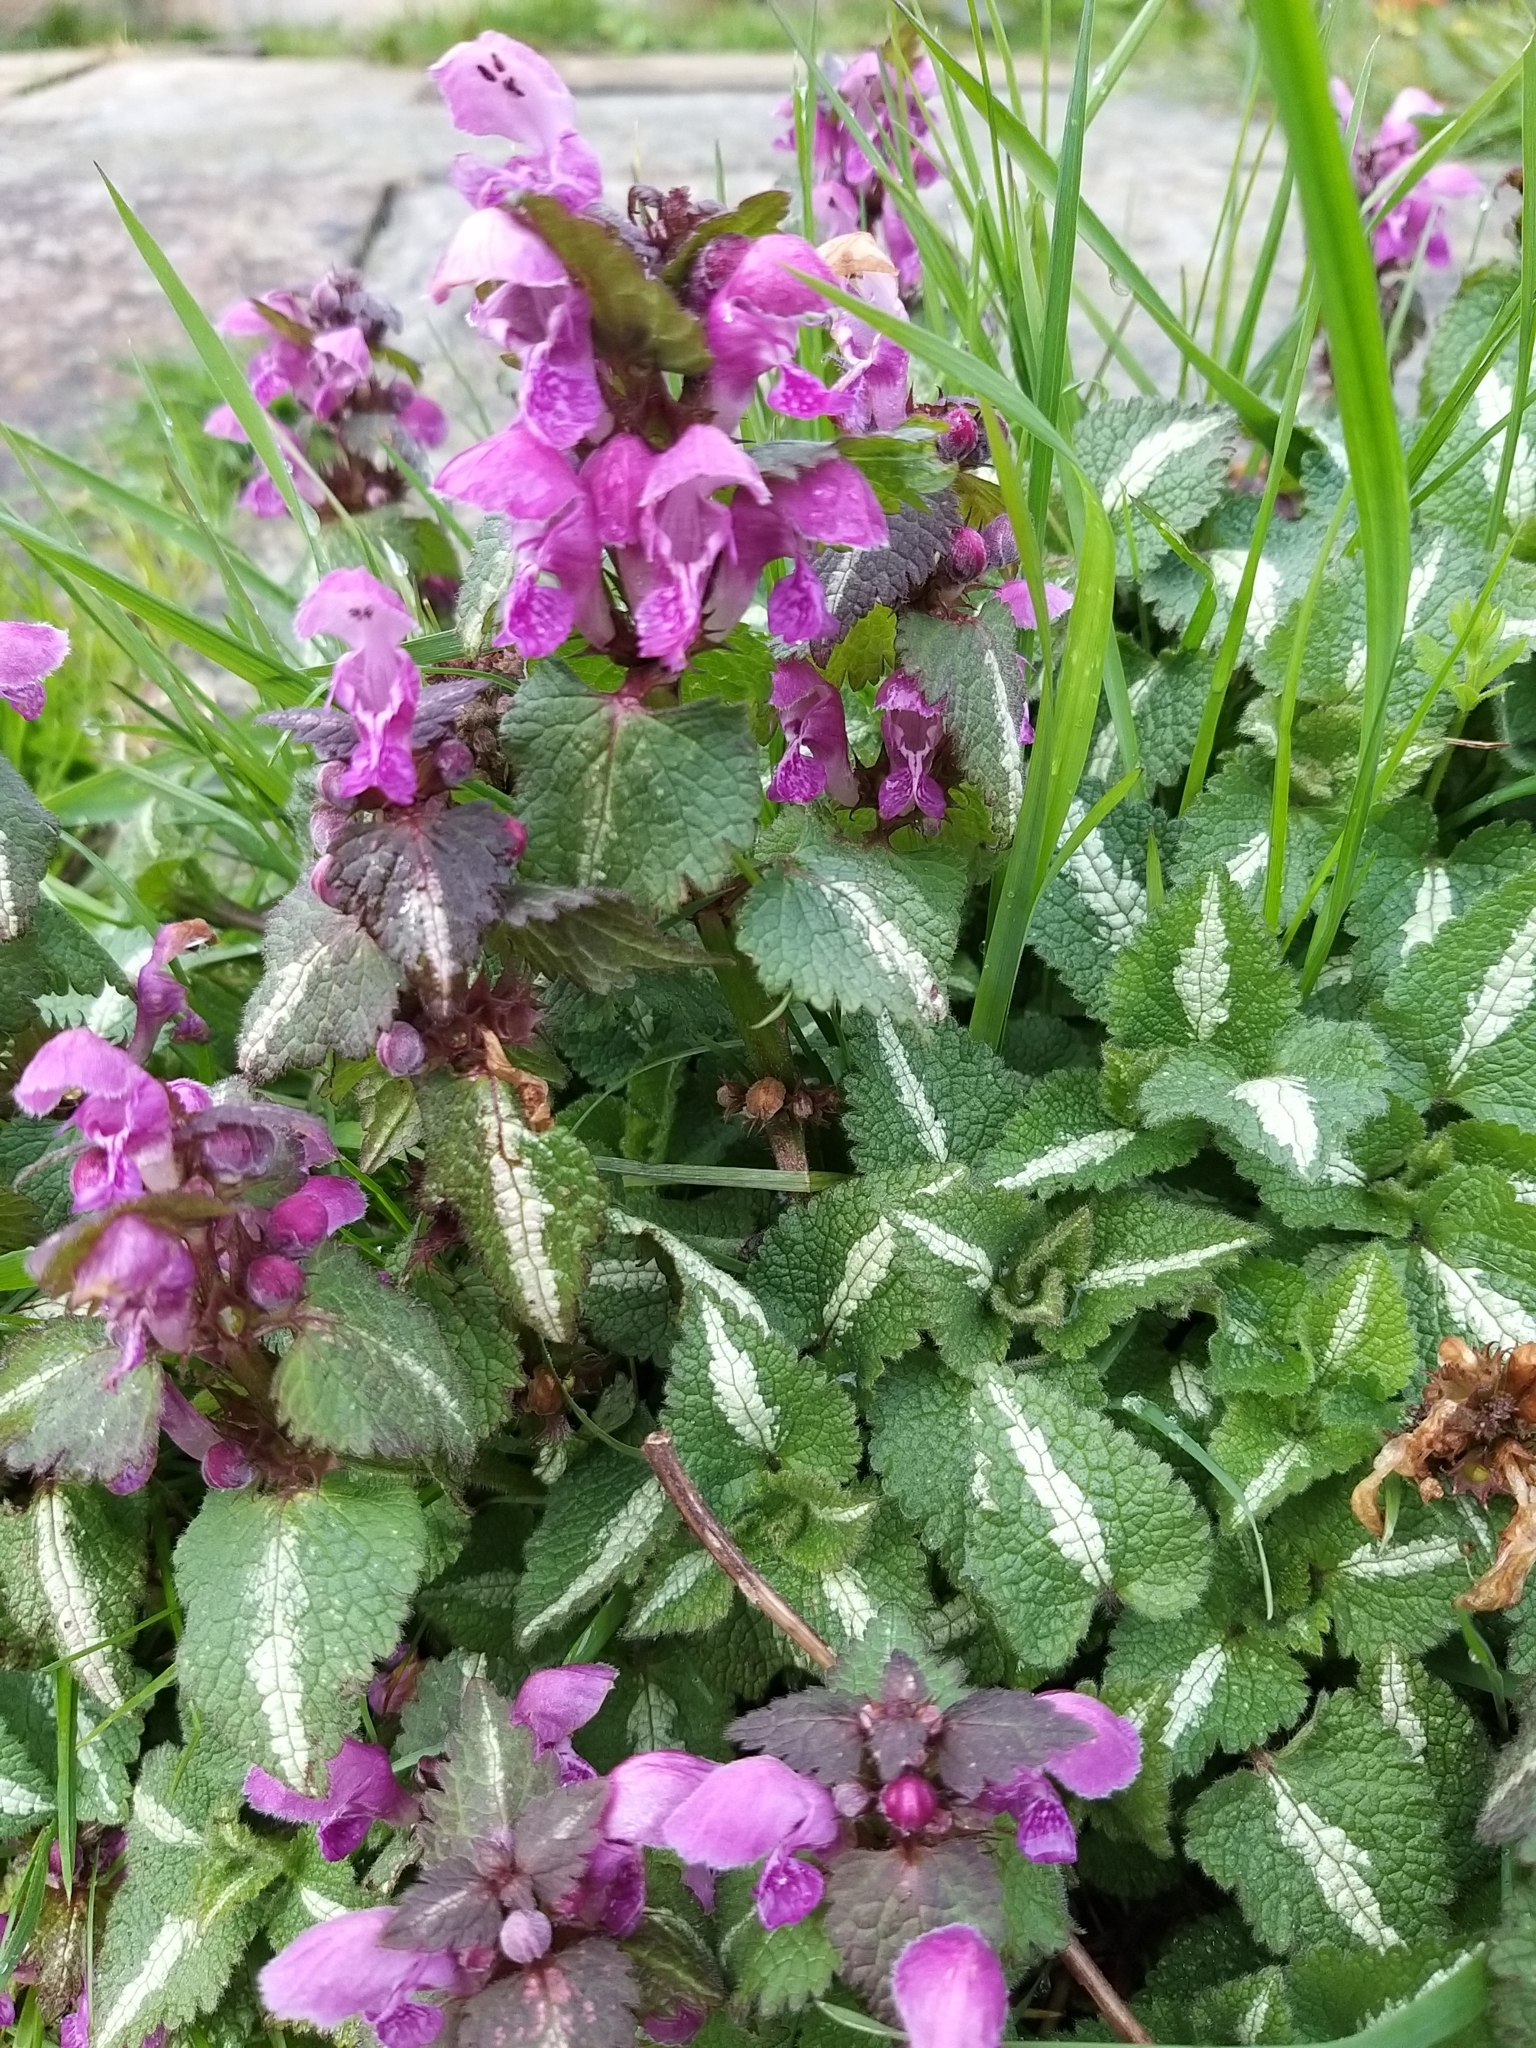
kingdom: Plantae
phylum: Tracheophyta
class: Magnoliopsida
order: Lamiales
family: Lamiaceae
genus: Lamium
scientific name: Lamium maculatum
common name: Spotted dead-nettle
